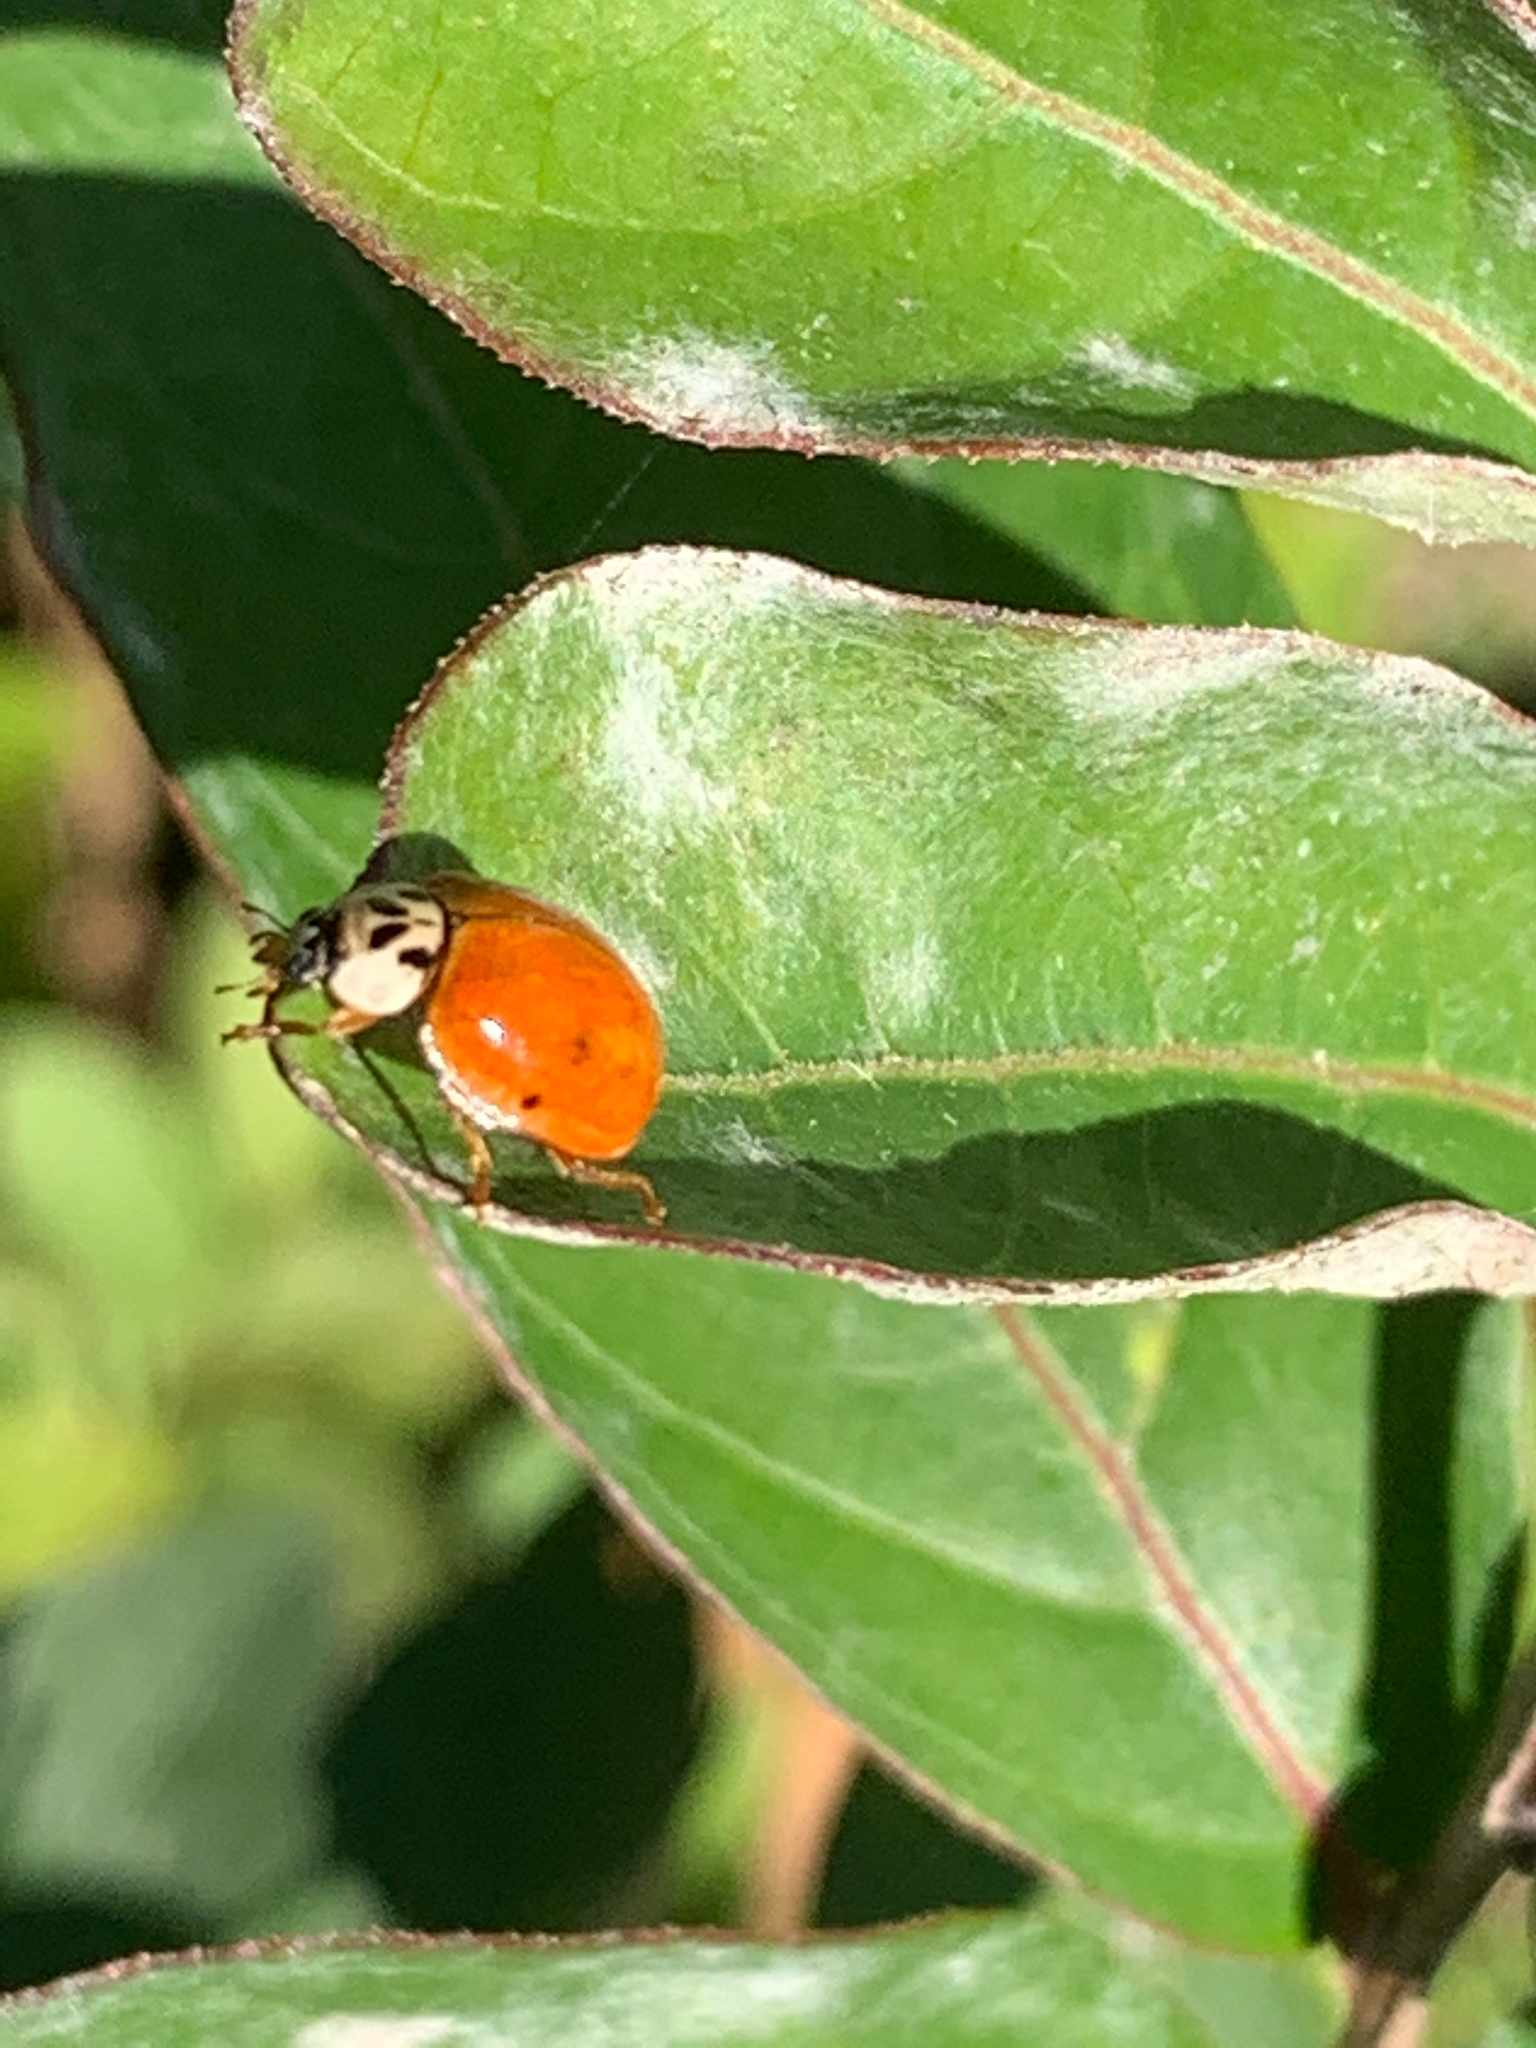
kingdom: Animalia
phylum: Arthropoda
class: Insecta
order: Coleoptera
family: Coccinellidae
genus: Harmonia
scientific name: Harmonia axyridis
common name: Harlequin ladybird
